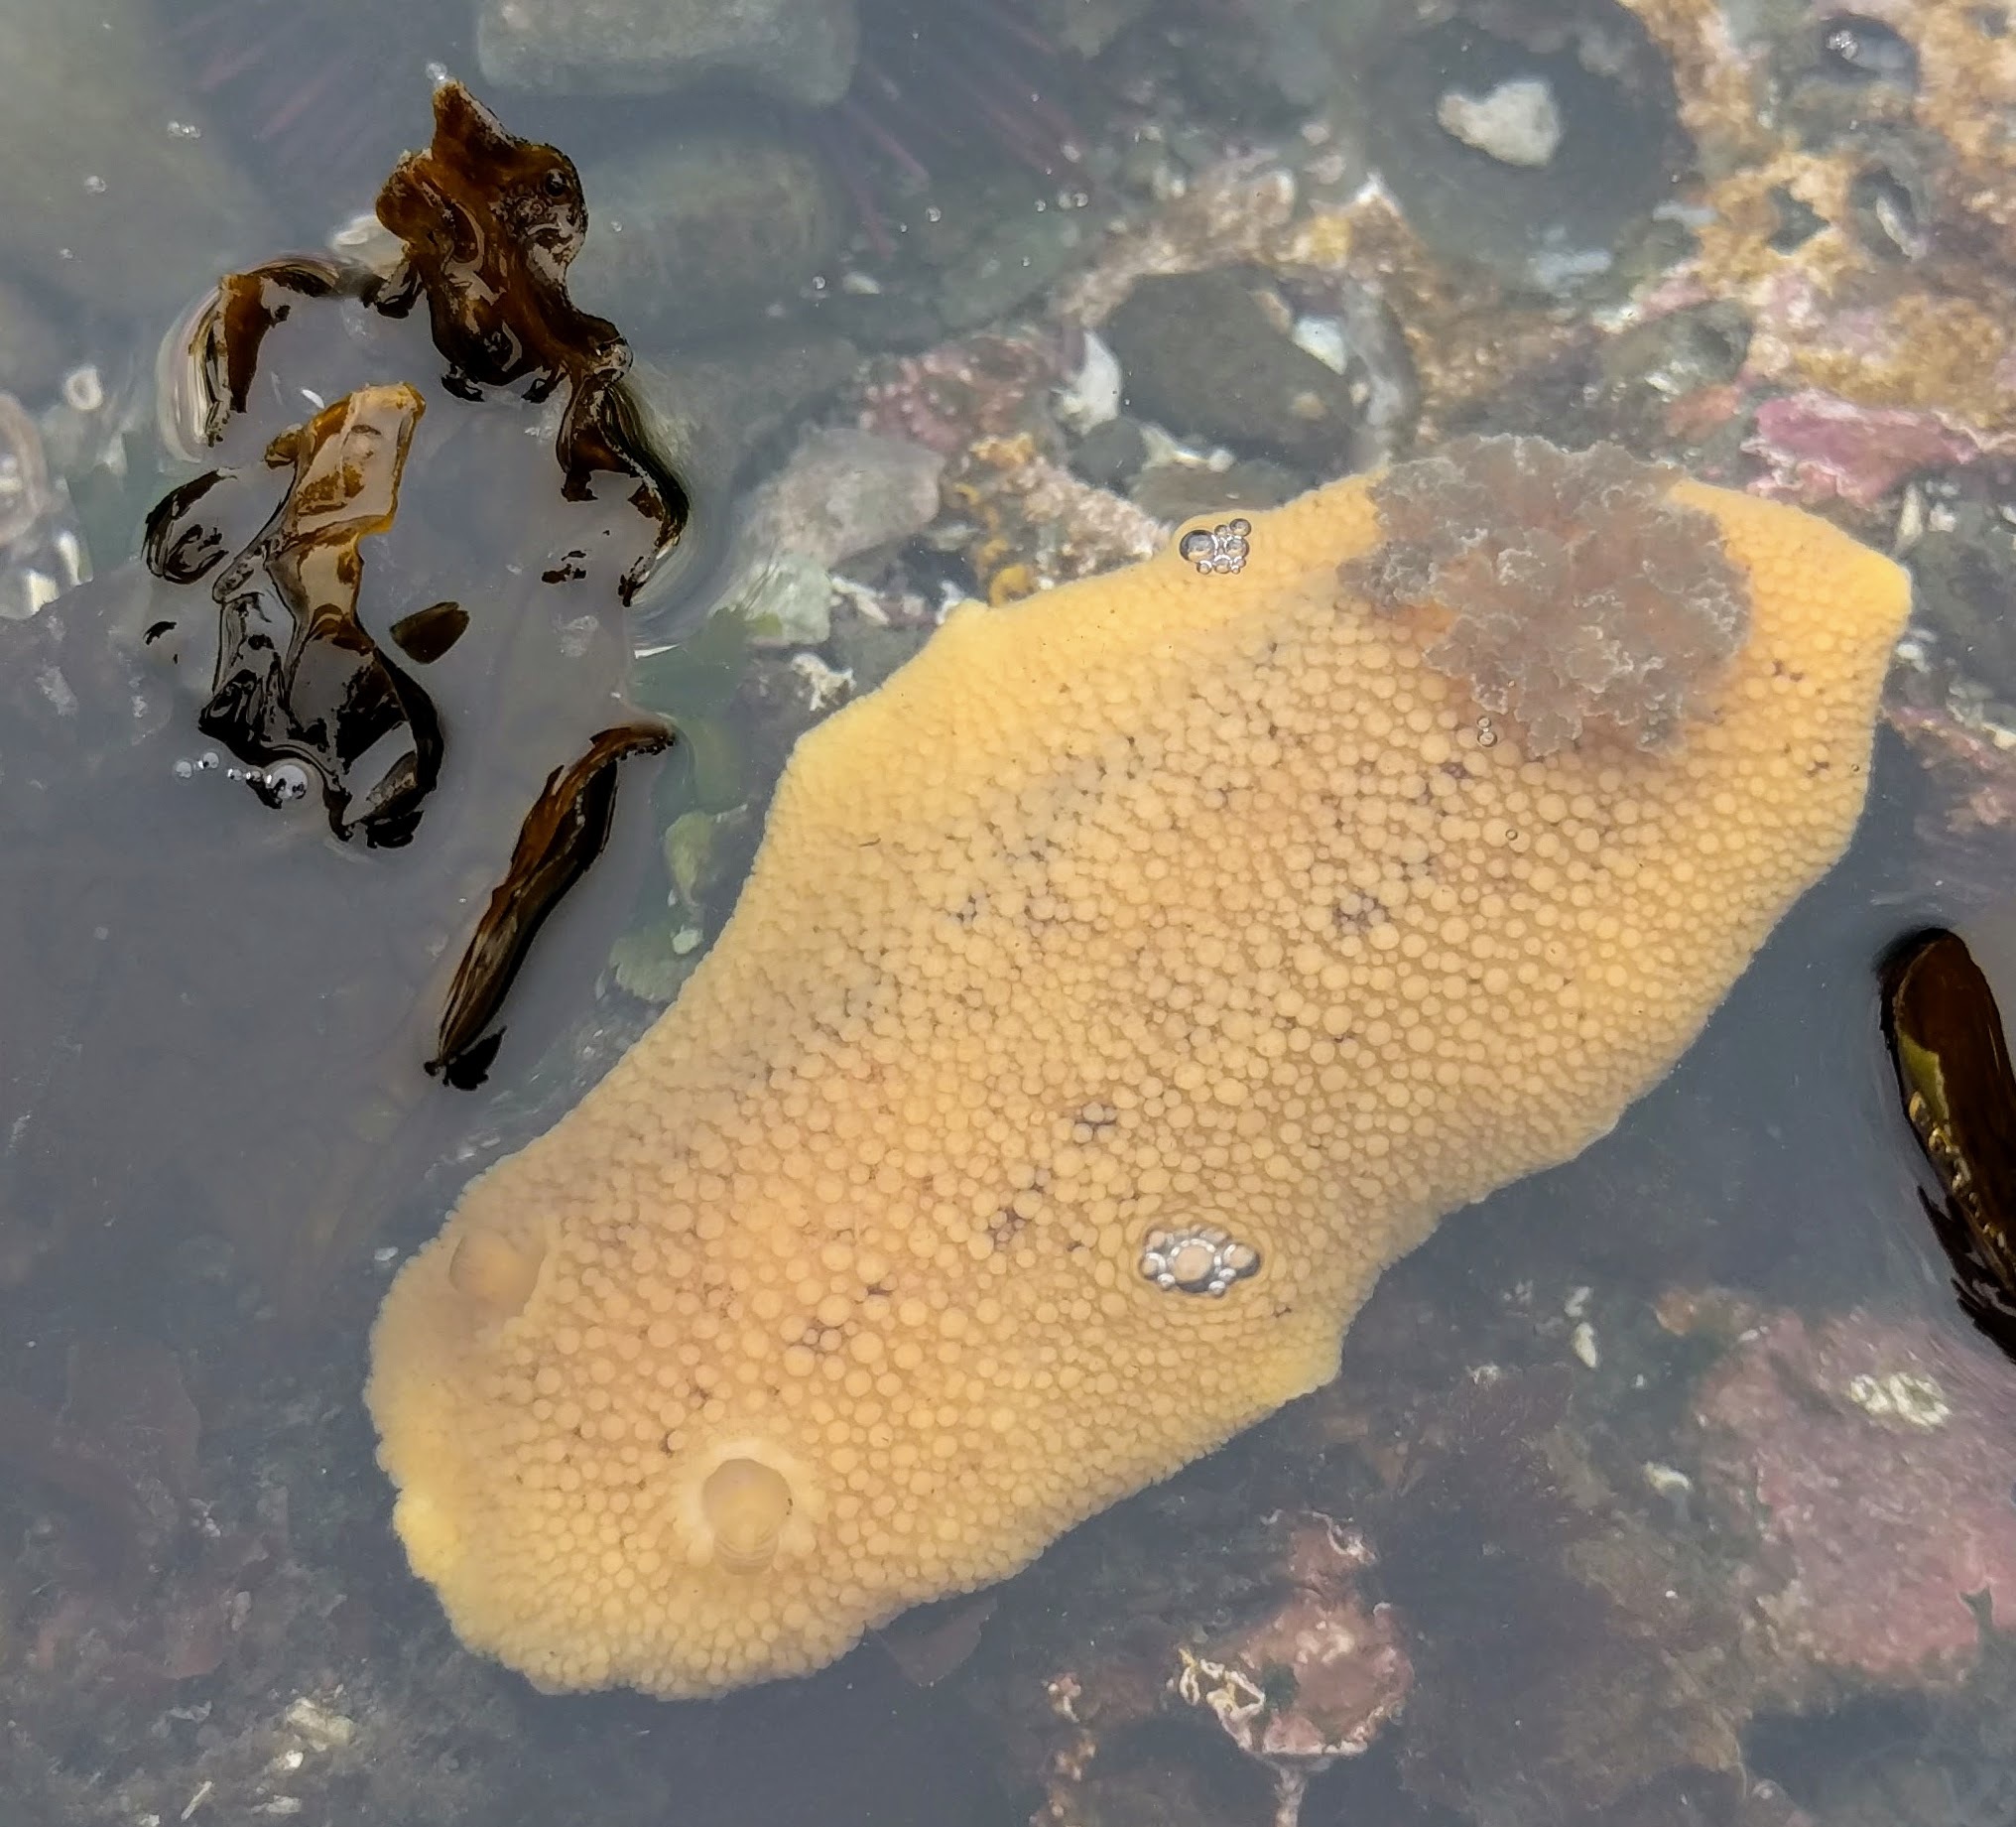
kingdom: Animalia
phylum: Mollusca
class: Gastropoda
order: Nudibranchia
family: Discodorididae
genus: Peltodoris
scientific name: Peltodoris nobilis
